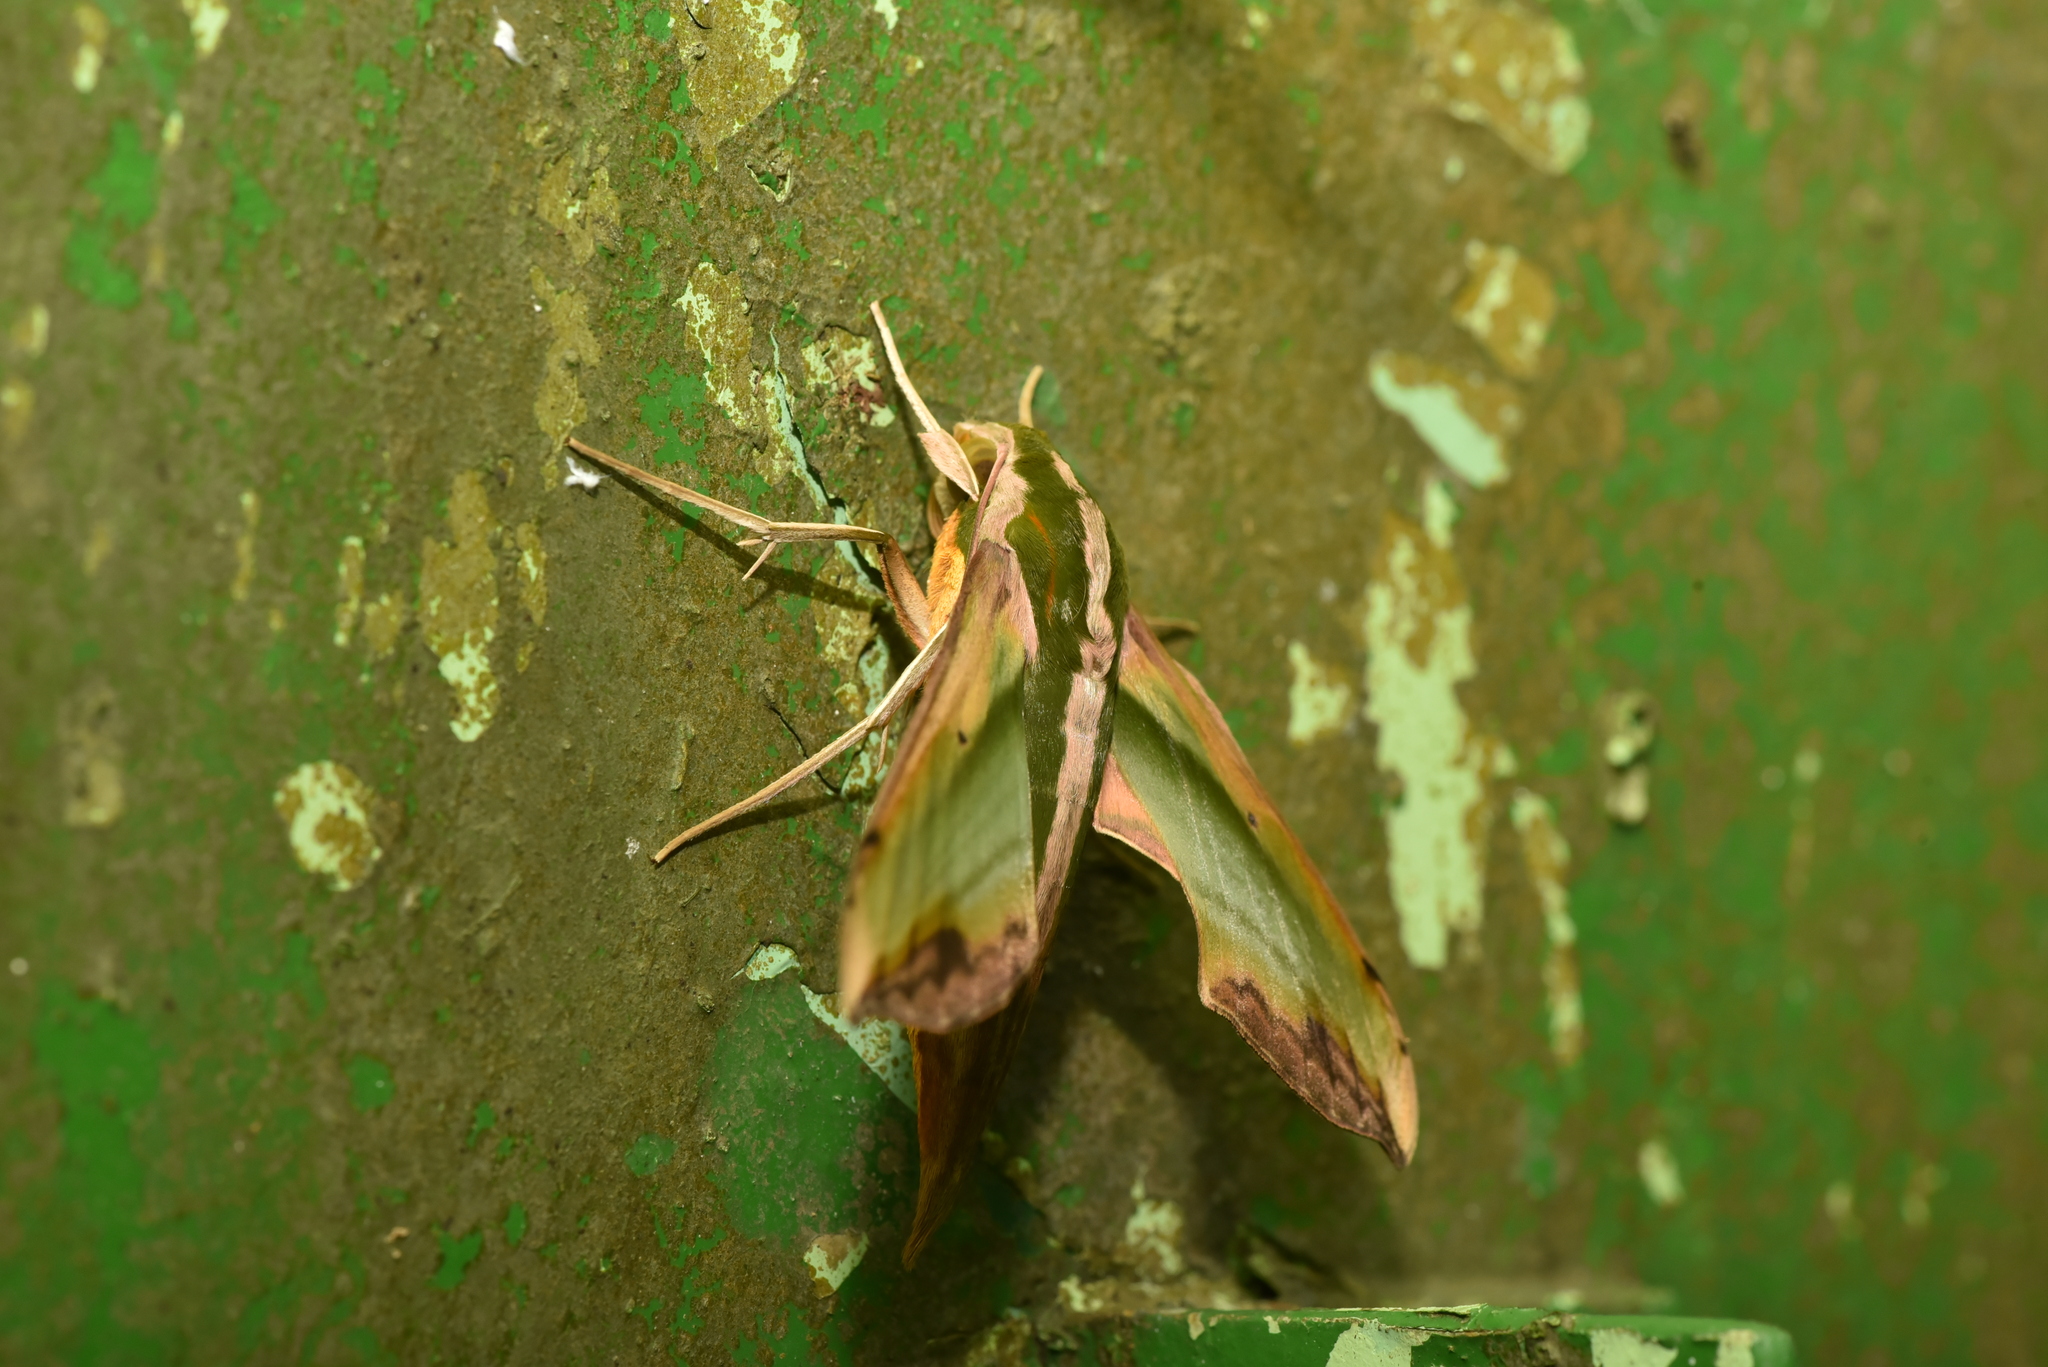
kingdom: Animalia
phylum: Arthropoda
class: Insecta
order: Lepidoptera
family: Sphingidae
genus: Pergesa
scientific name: Pergesa acteus
